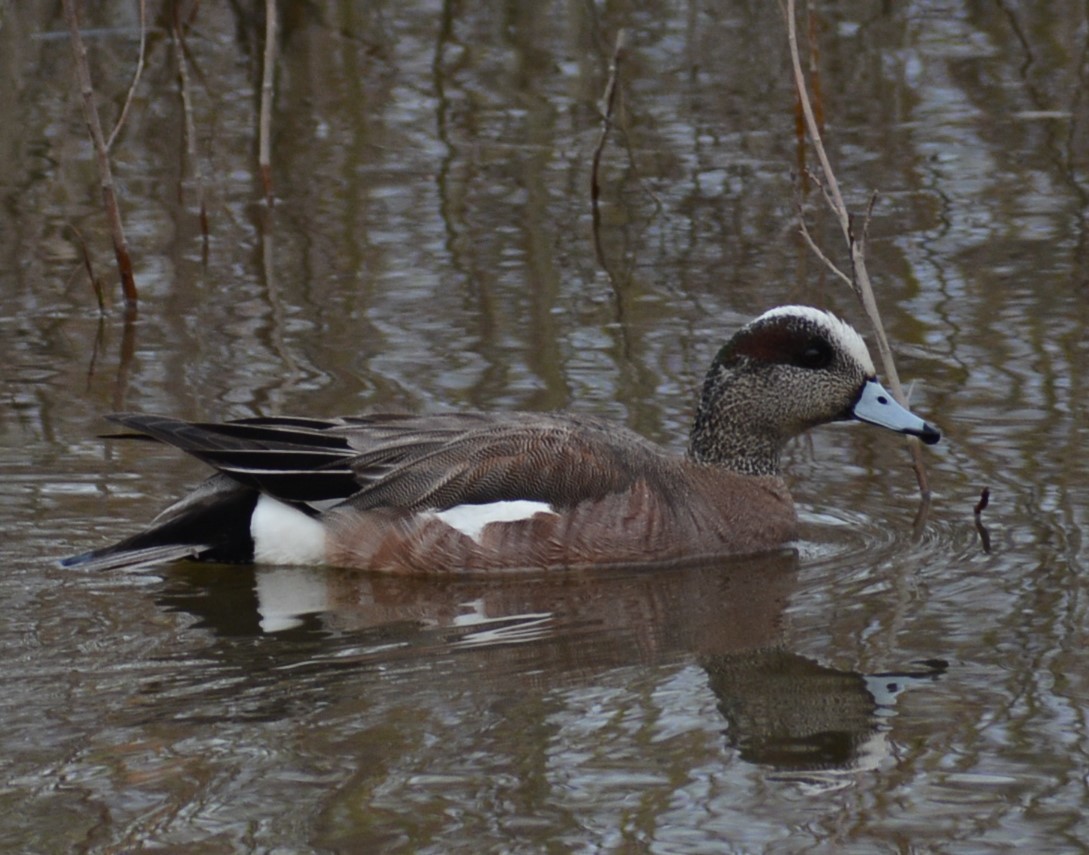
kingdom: Animalia
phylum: Chordata
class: Aves
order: Anseriformes
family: Anatidae
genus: Mareca
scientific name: Mareca americana
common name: American wigeon
